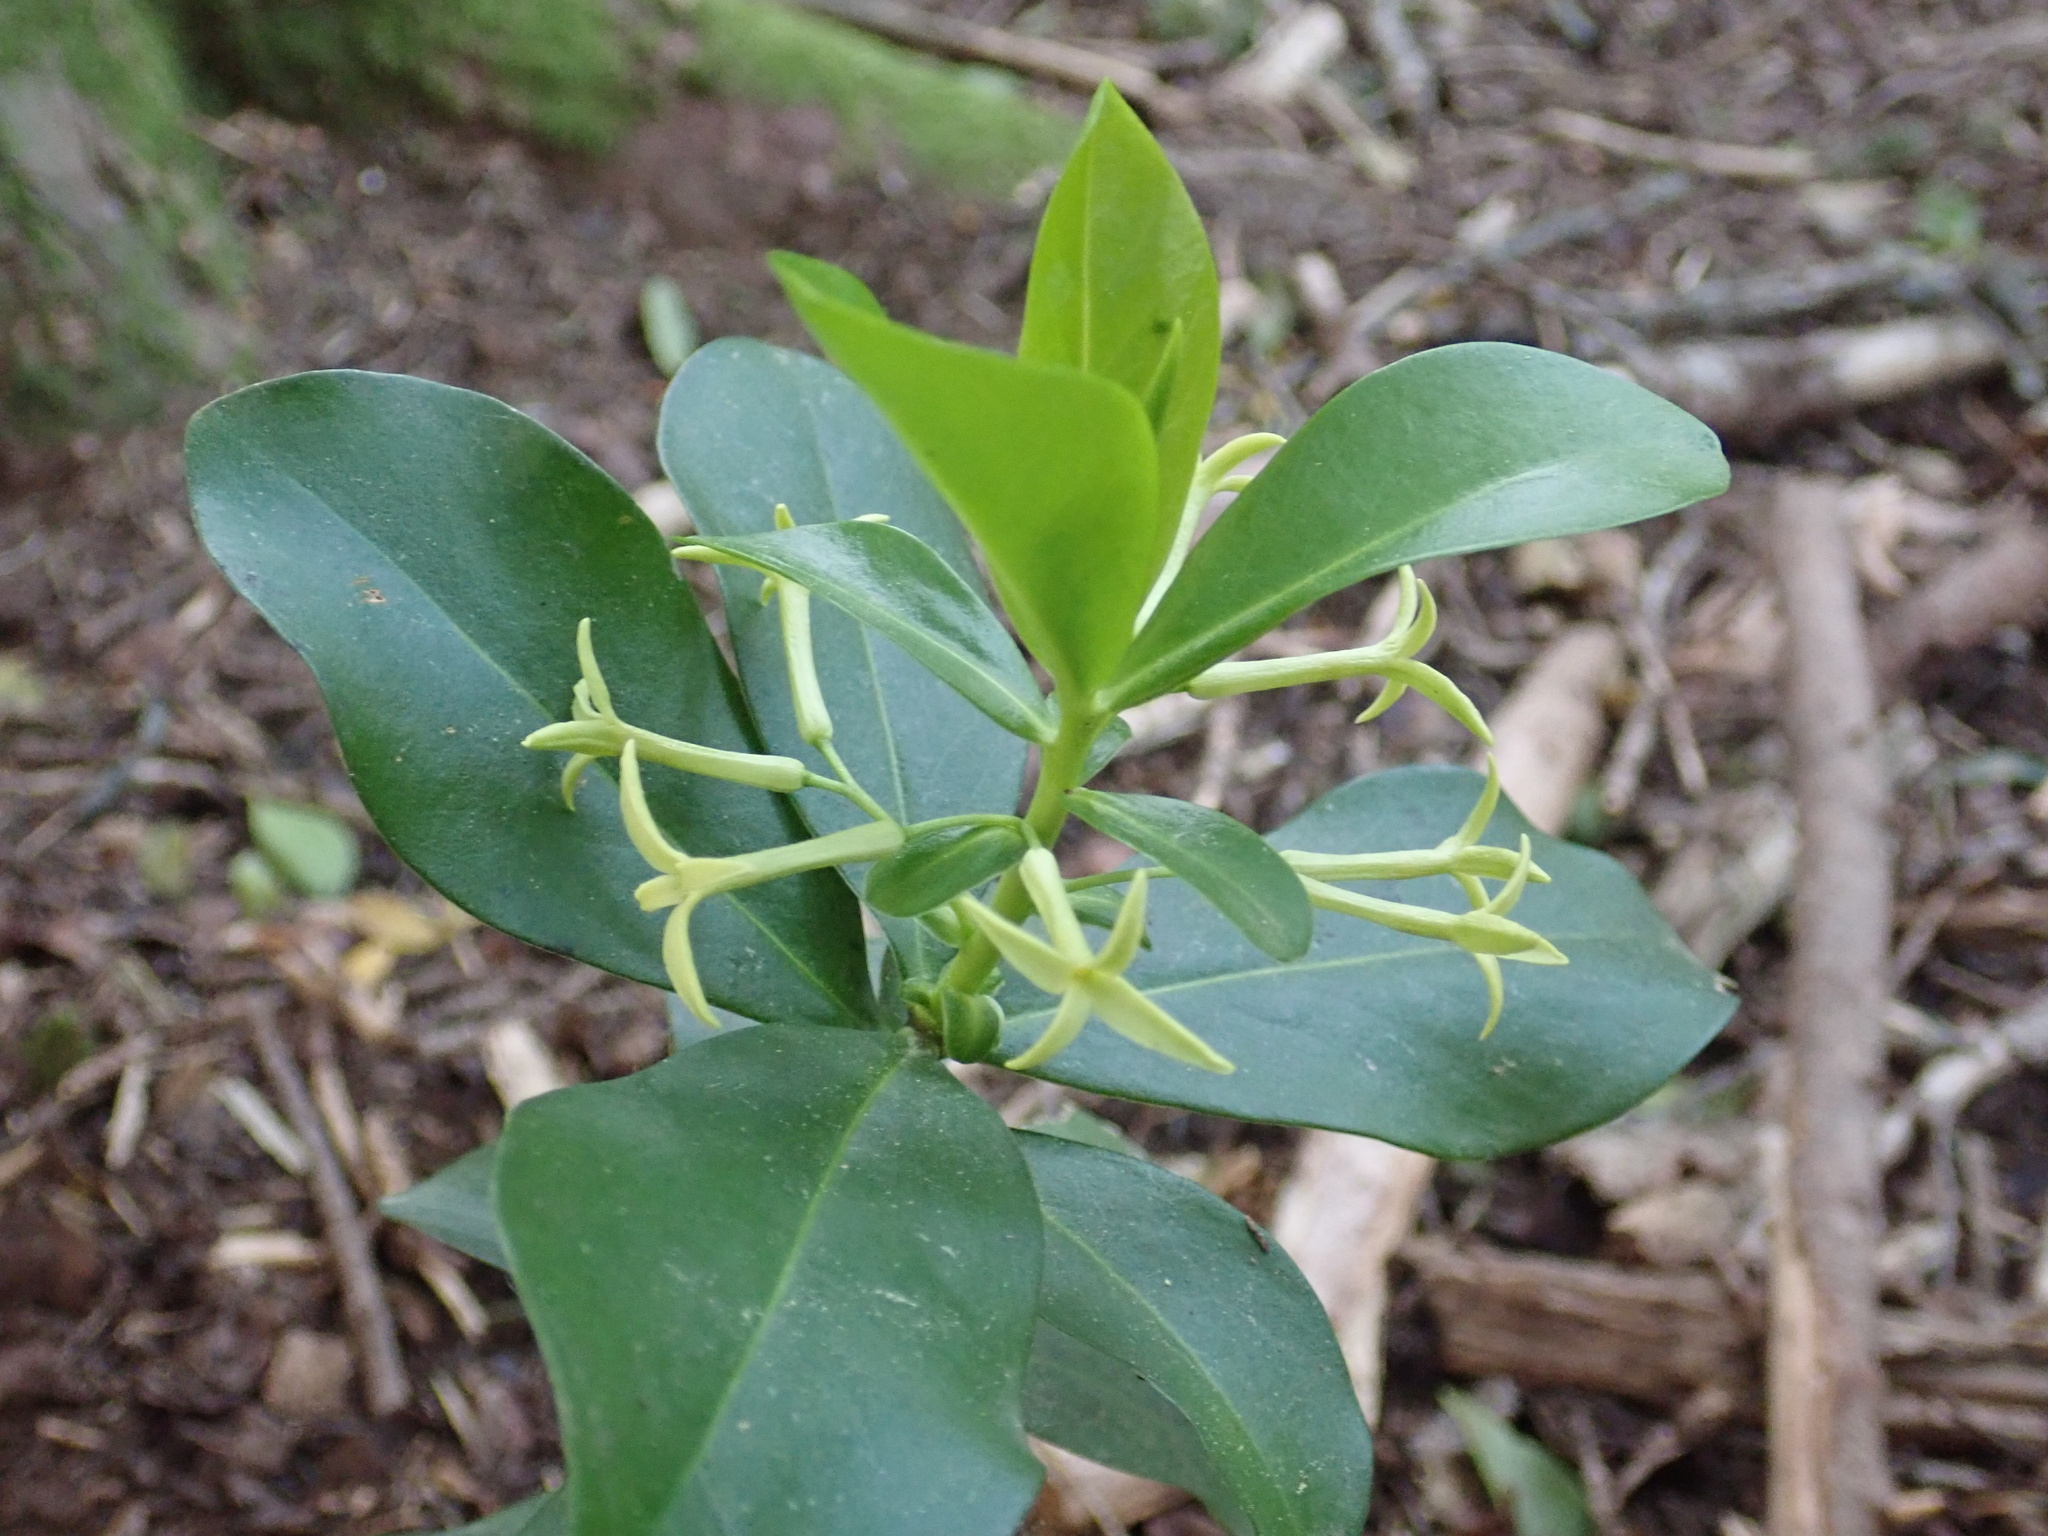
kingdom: Plantae
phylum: Tracheophyta
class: Magnoliopsida
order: Malvales
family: Thymelaeaceae
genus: Daphne
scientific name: Daphne pontica
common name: Twin-flower daphne
